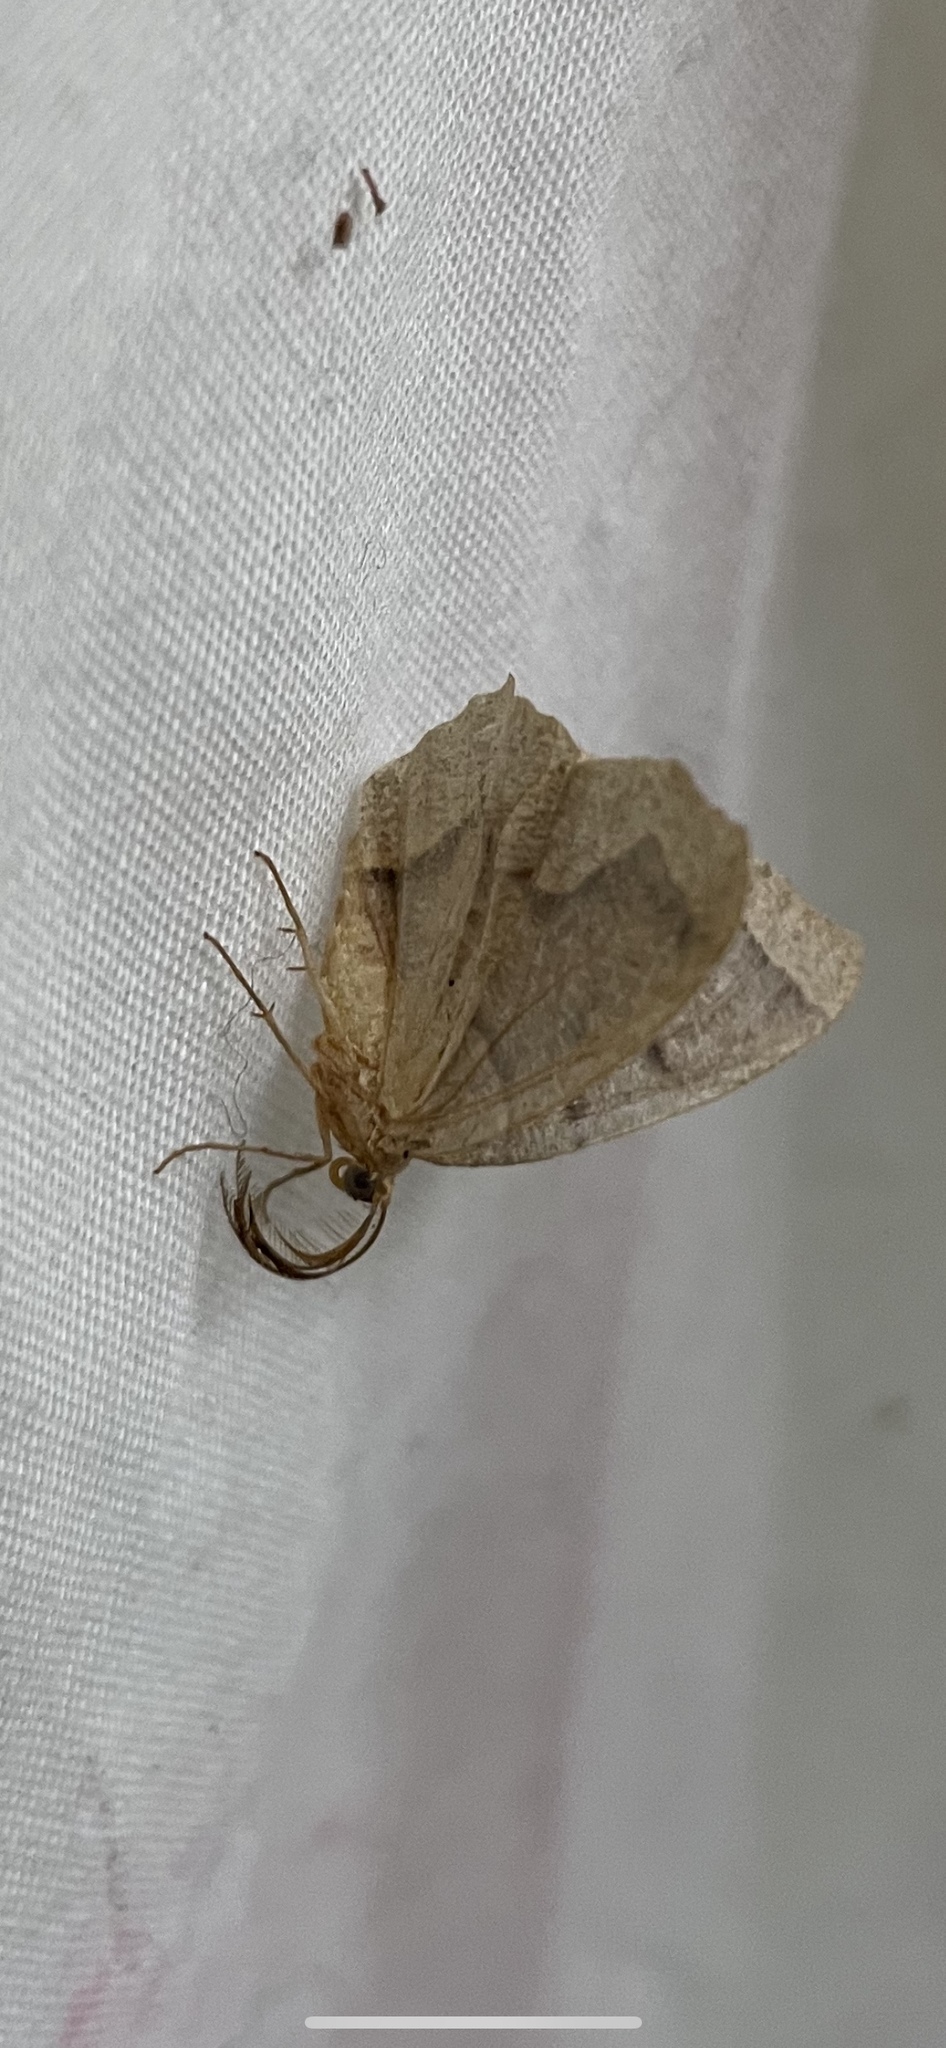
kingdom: Animalia
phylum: Arthropoda
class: Insecta
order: Lepidoptera
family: Geometridae
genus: Lambdina
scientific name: Lambdina fiscellaria
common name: Hemlock looper
